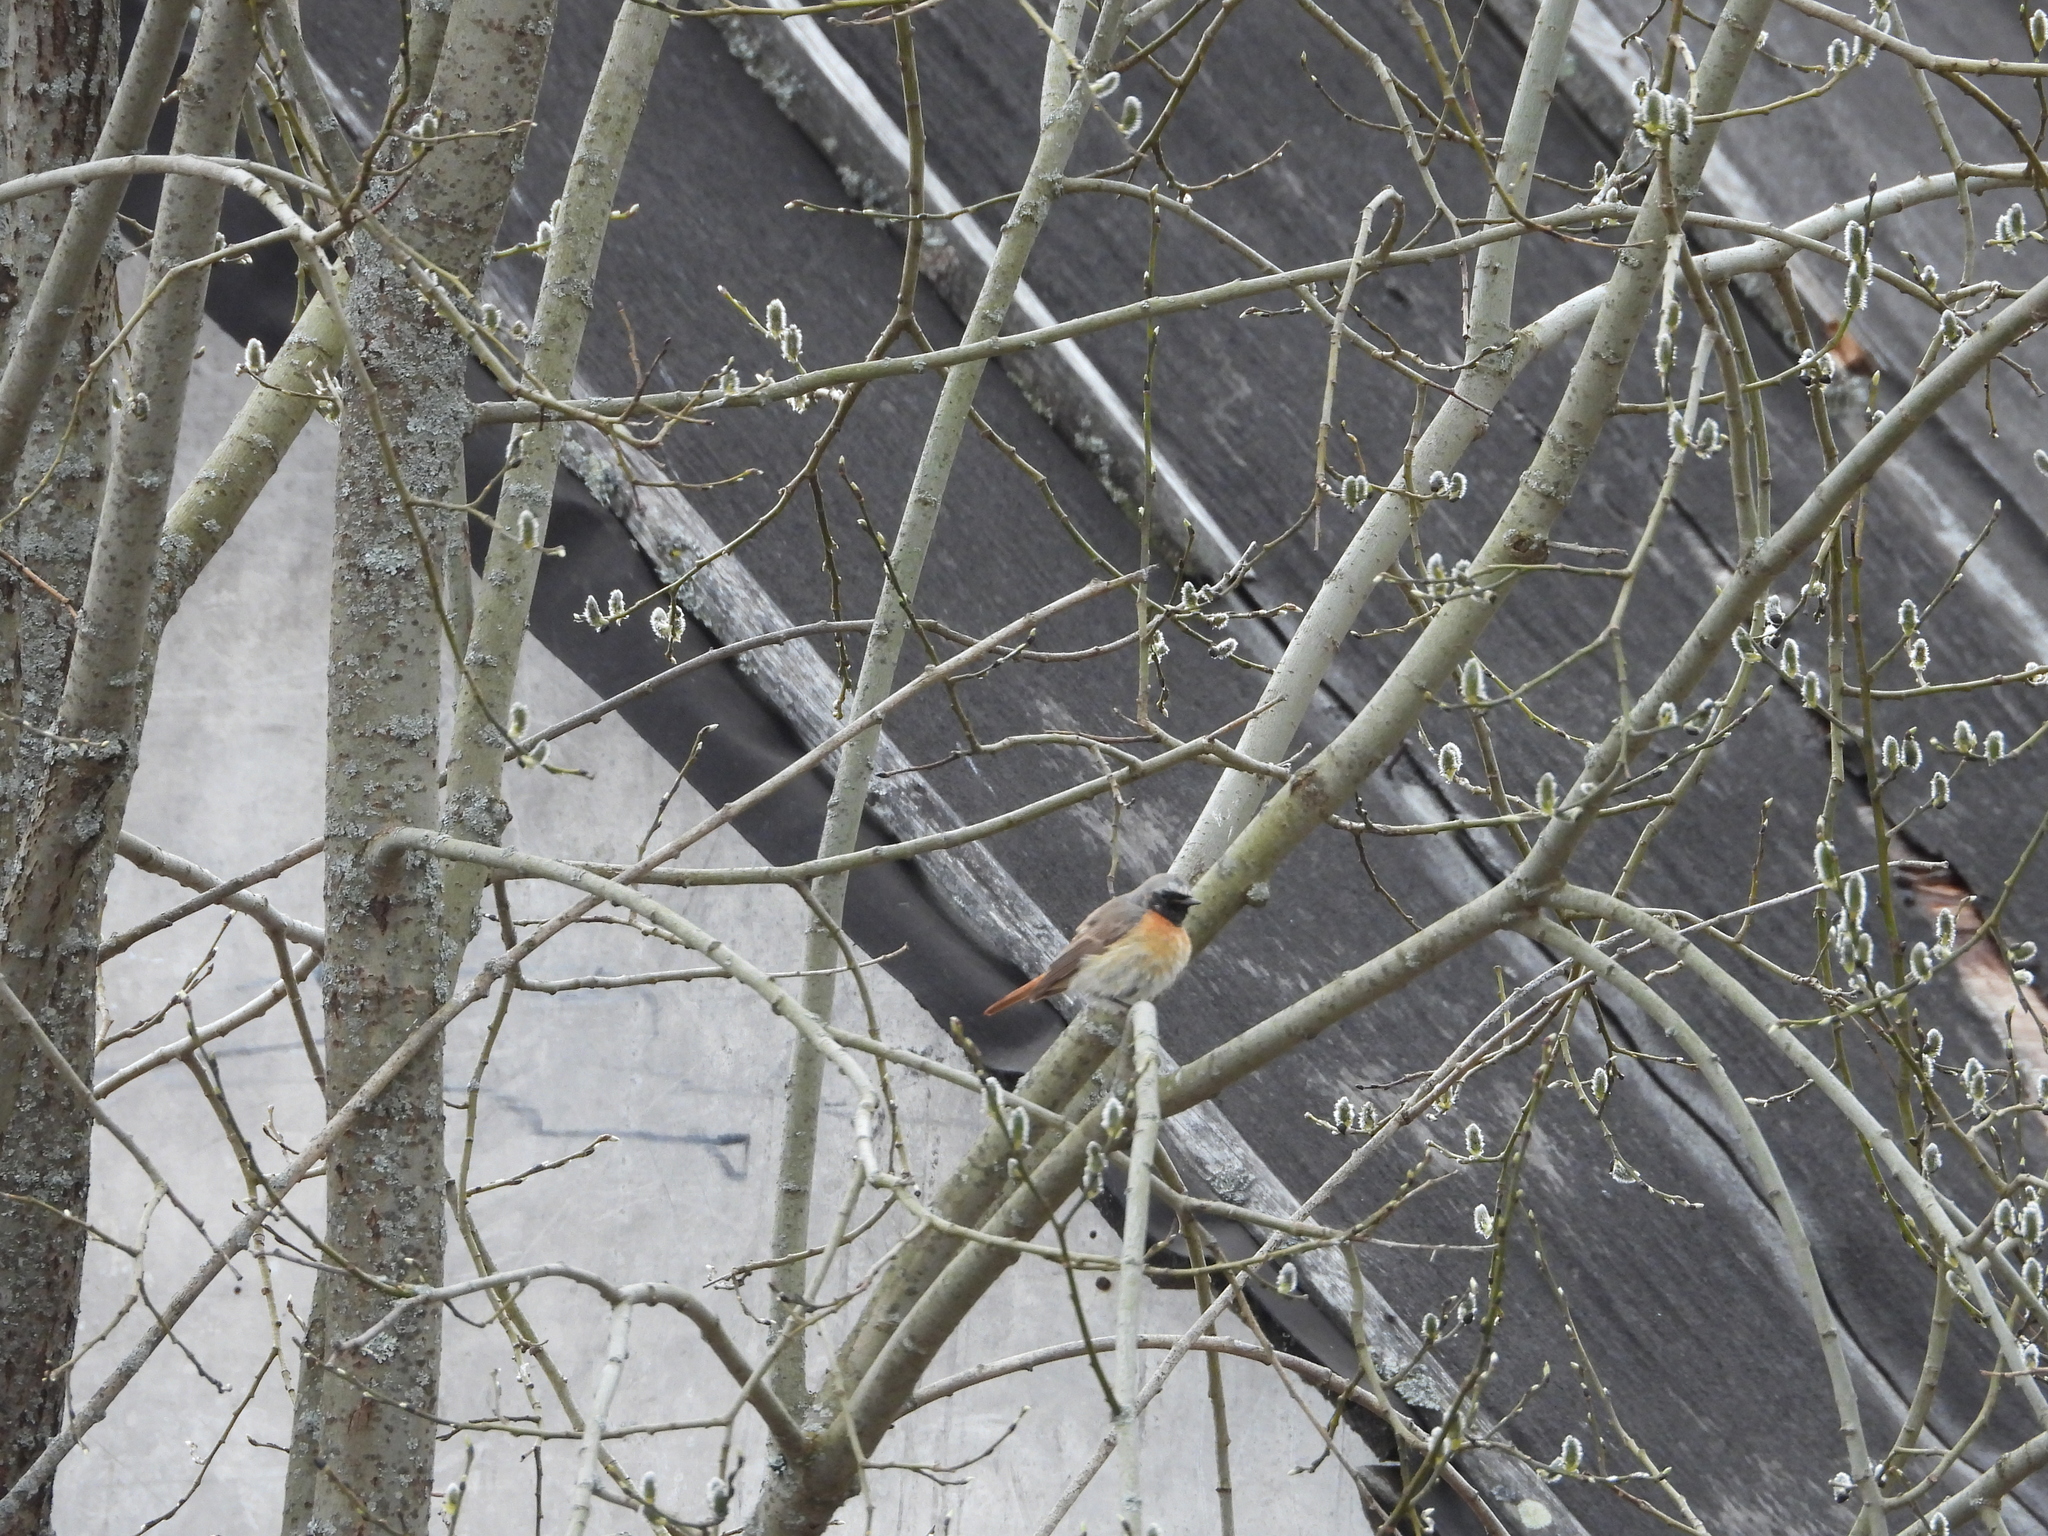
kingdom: Animalia
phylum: Chordata
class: Aves
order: Passeriformes
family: Muscicapidae
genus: Phoenicurus
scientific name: Phoenicurus phoenicurus
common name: Common redstart
